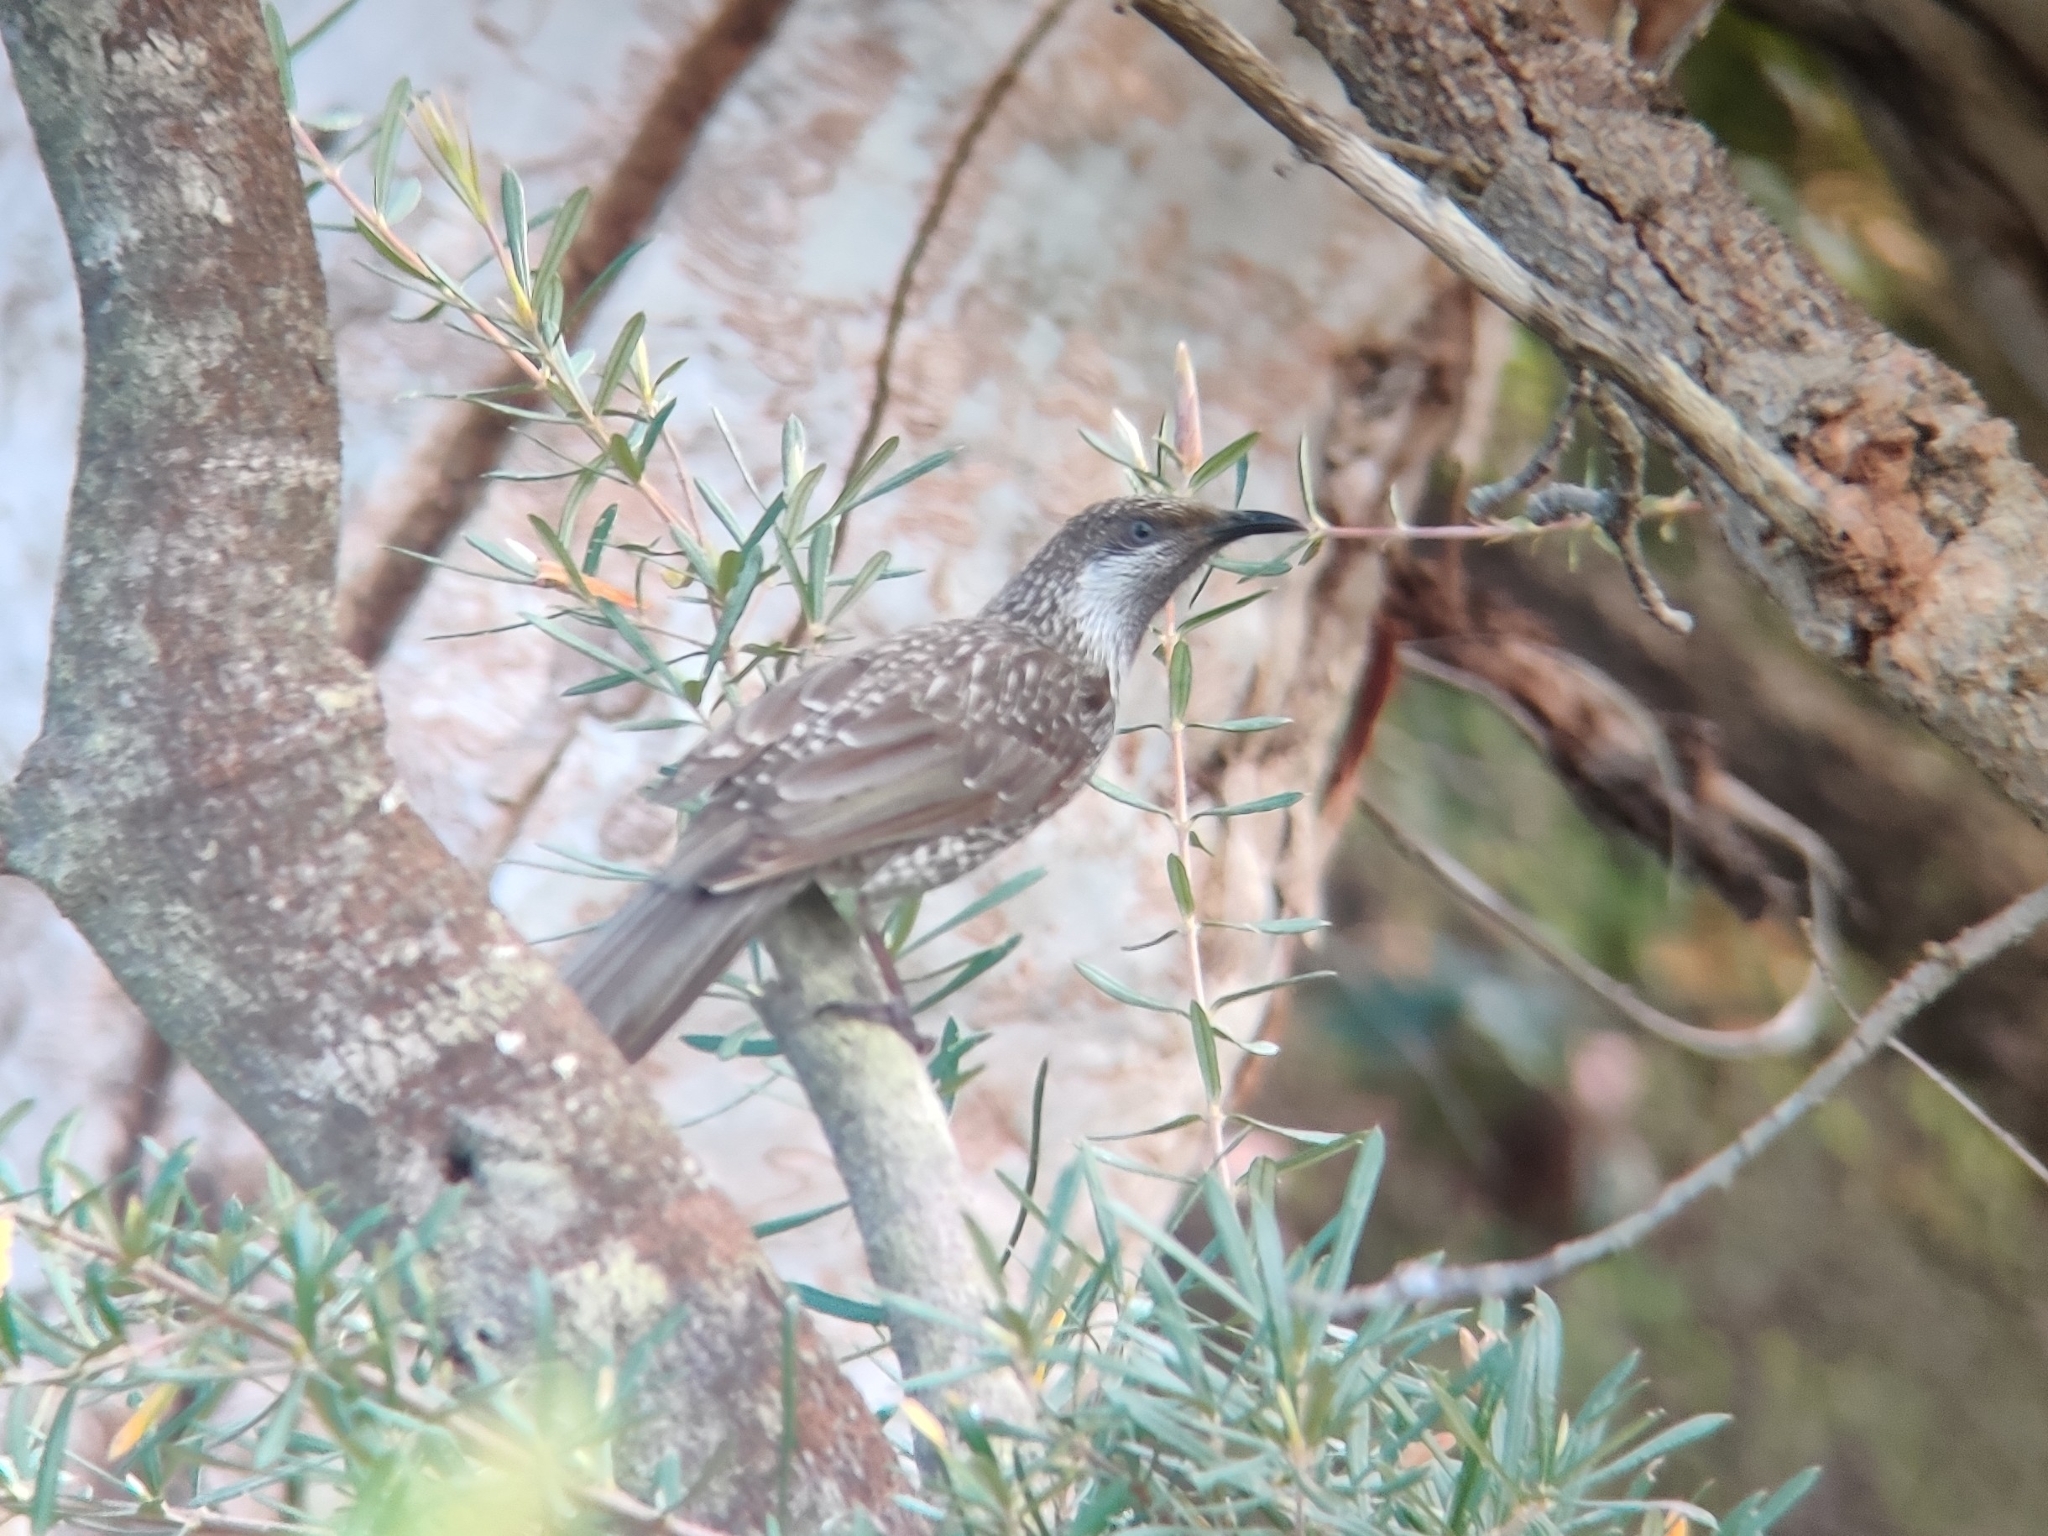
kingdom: Animalia
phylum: Chordata
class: Aves
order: Passeriformes
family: Meliphagidae
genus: Anthochaera
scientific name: Anthochaera chrysoptera
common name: Little wattlebird
